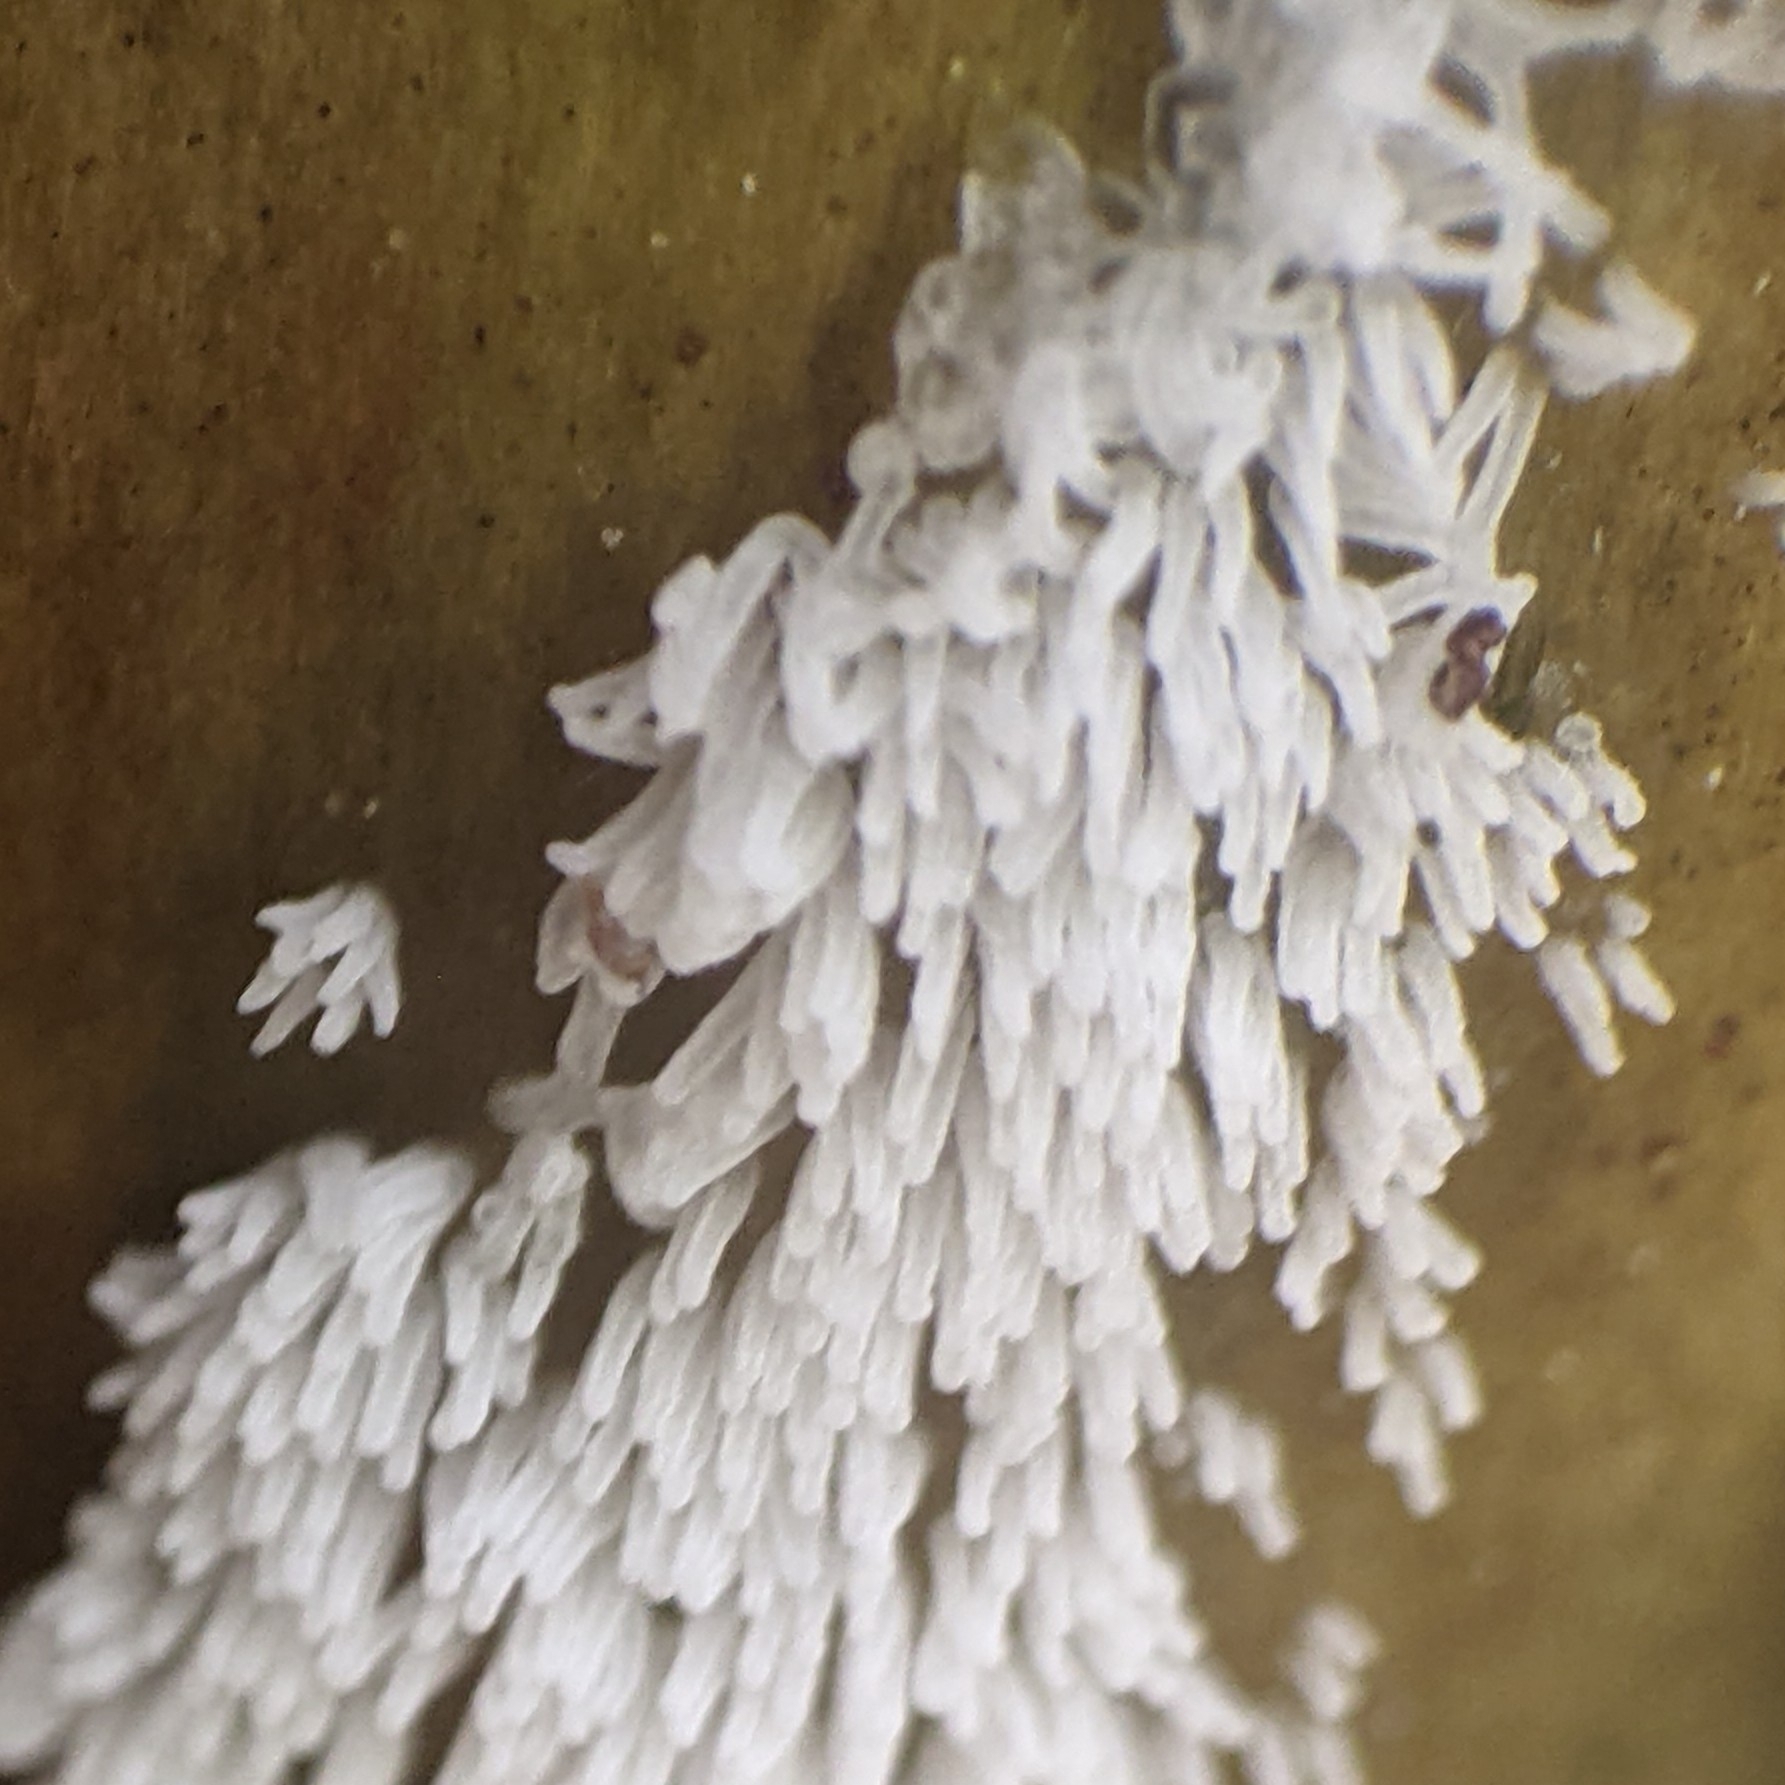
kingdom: Protozoa
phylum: Mycetozoa
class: Protosteliomycetes
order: Ceratiomyxales
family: Ceratiomyxaceae
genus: Ceratiomyxa
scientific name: Ceratiomyxa fruticulosa
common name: Honeycomb coral slime mold
